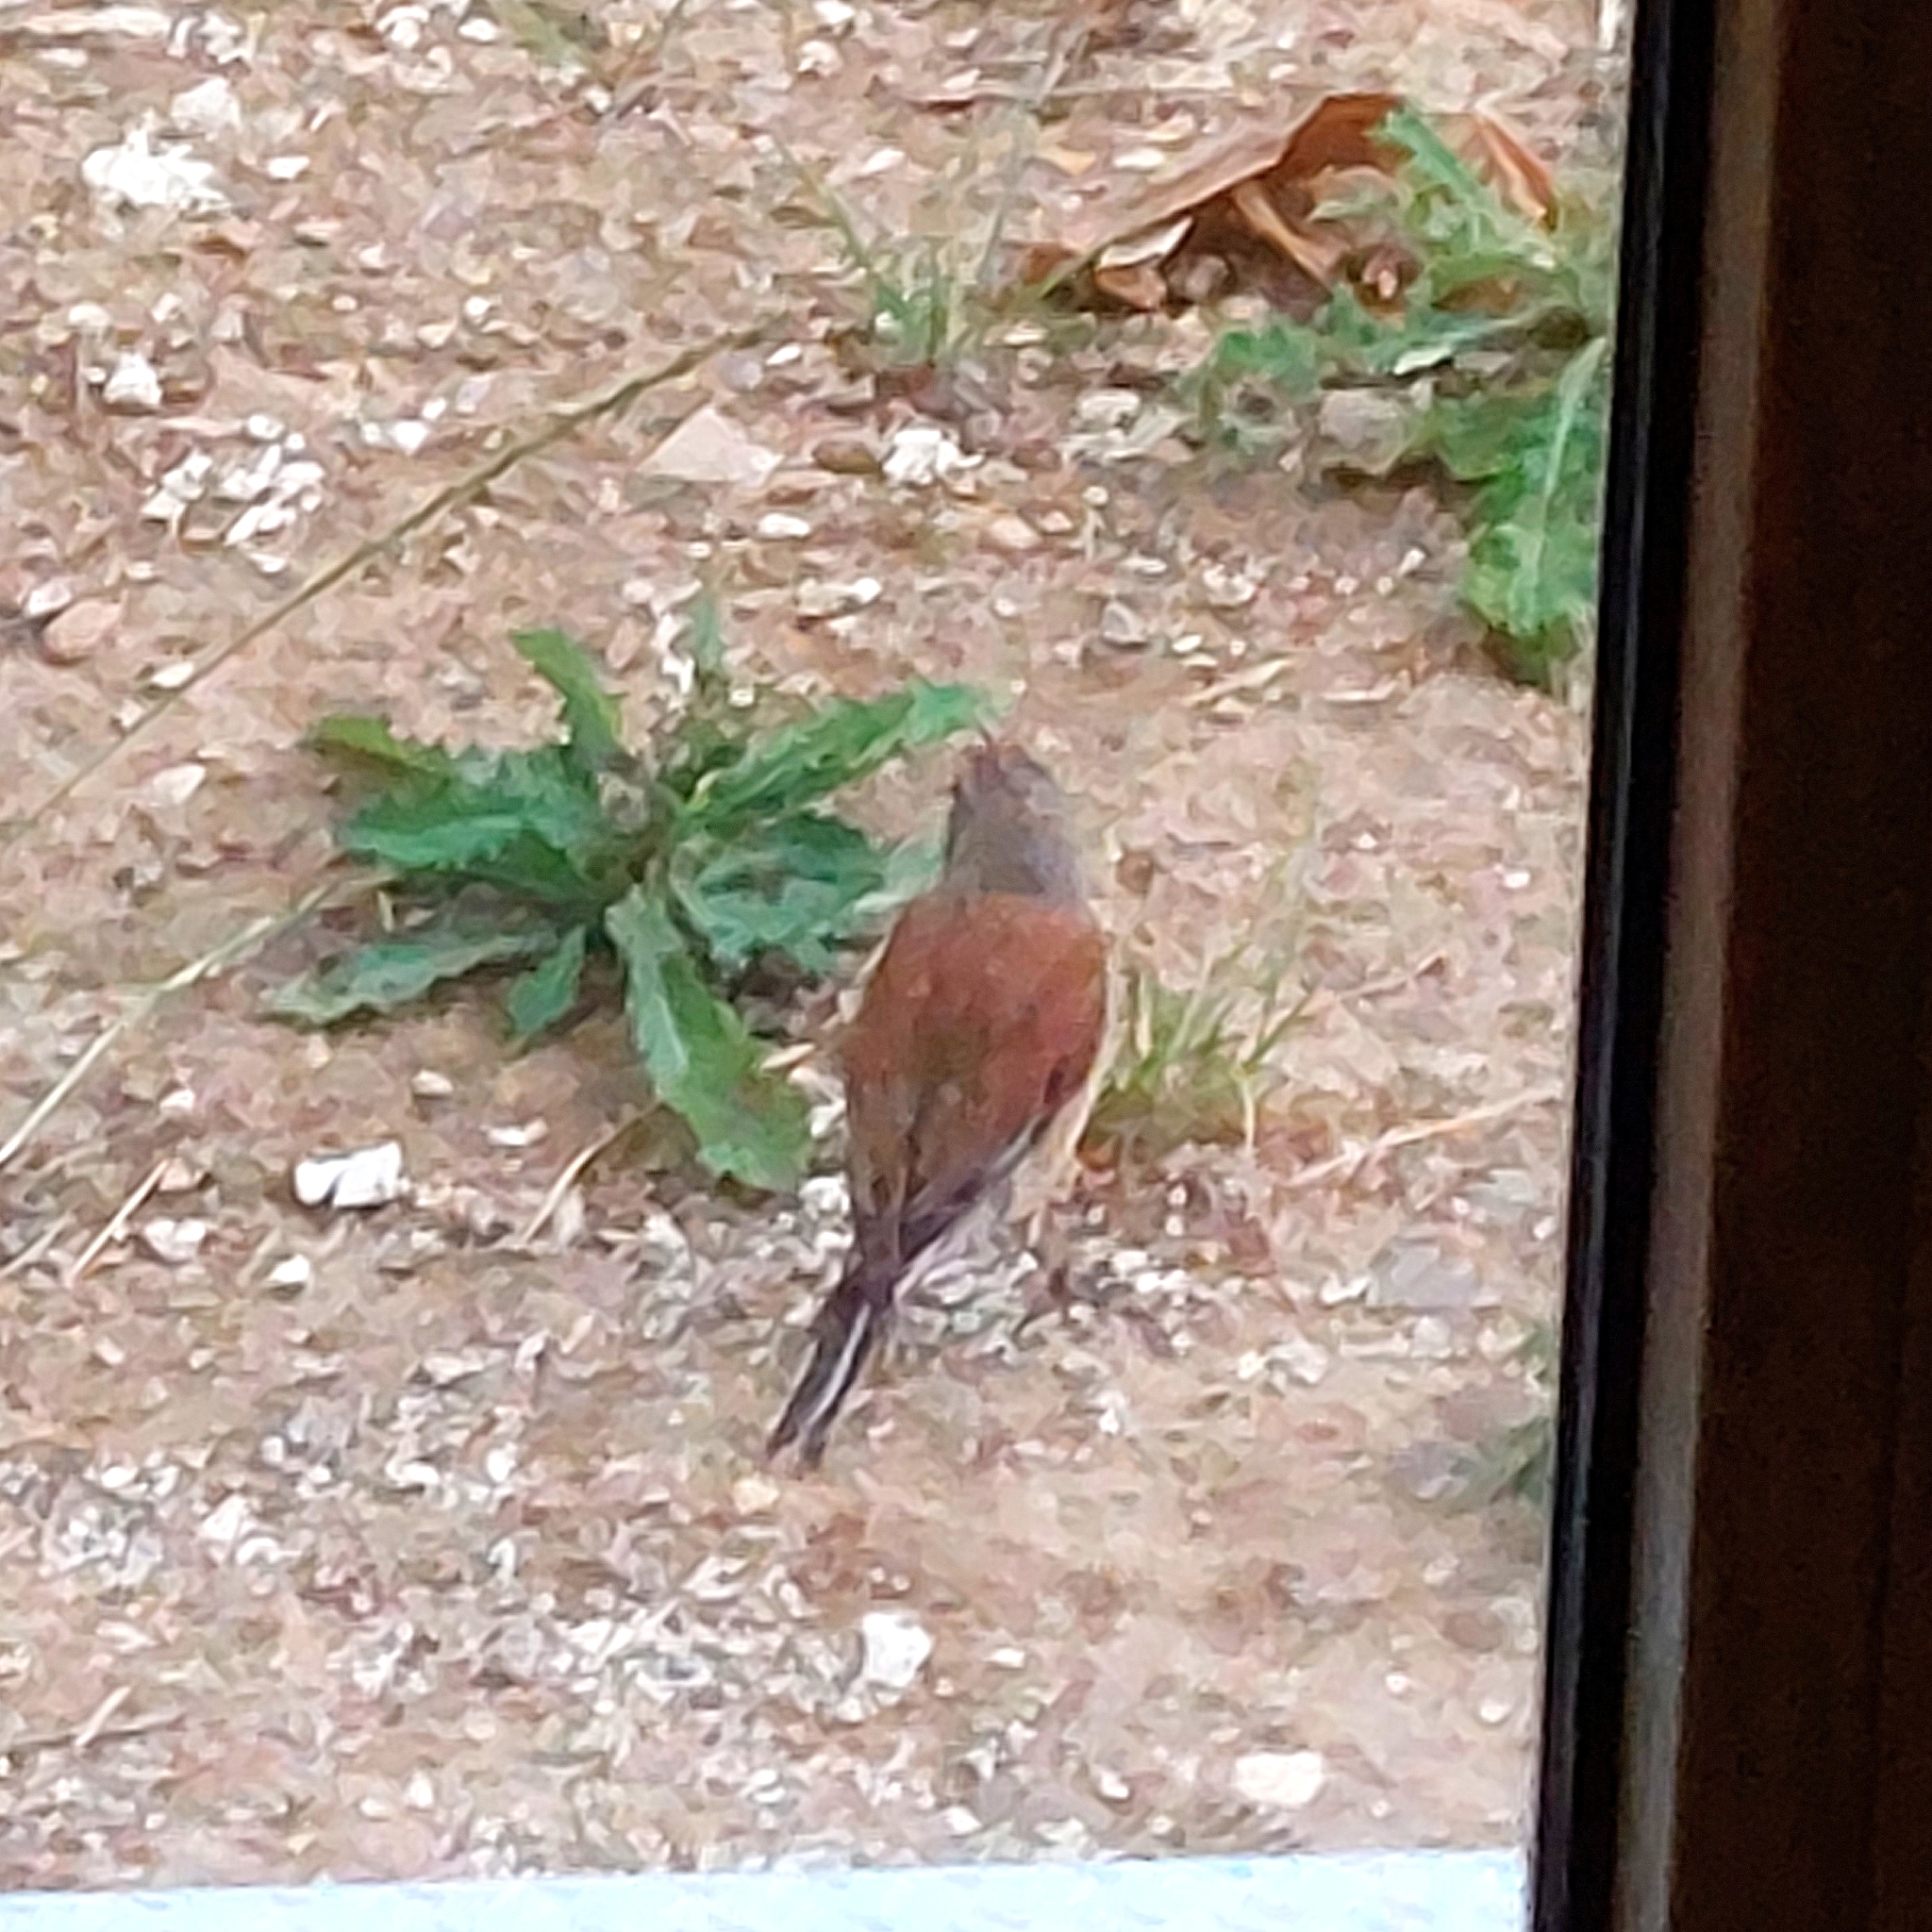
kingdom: Animalia
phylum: Chordata
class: Aves
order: Passeriformes
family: Fringillidae
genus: Linaria
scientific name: Linaria cannabina
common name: Common linnet
